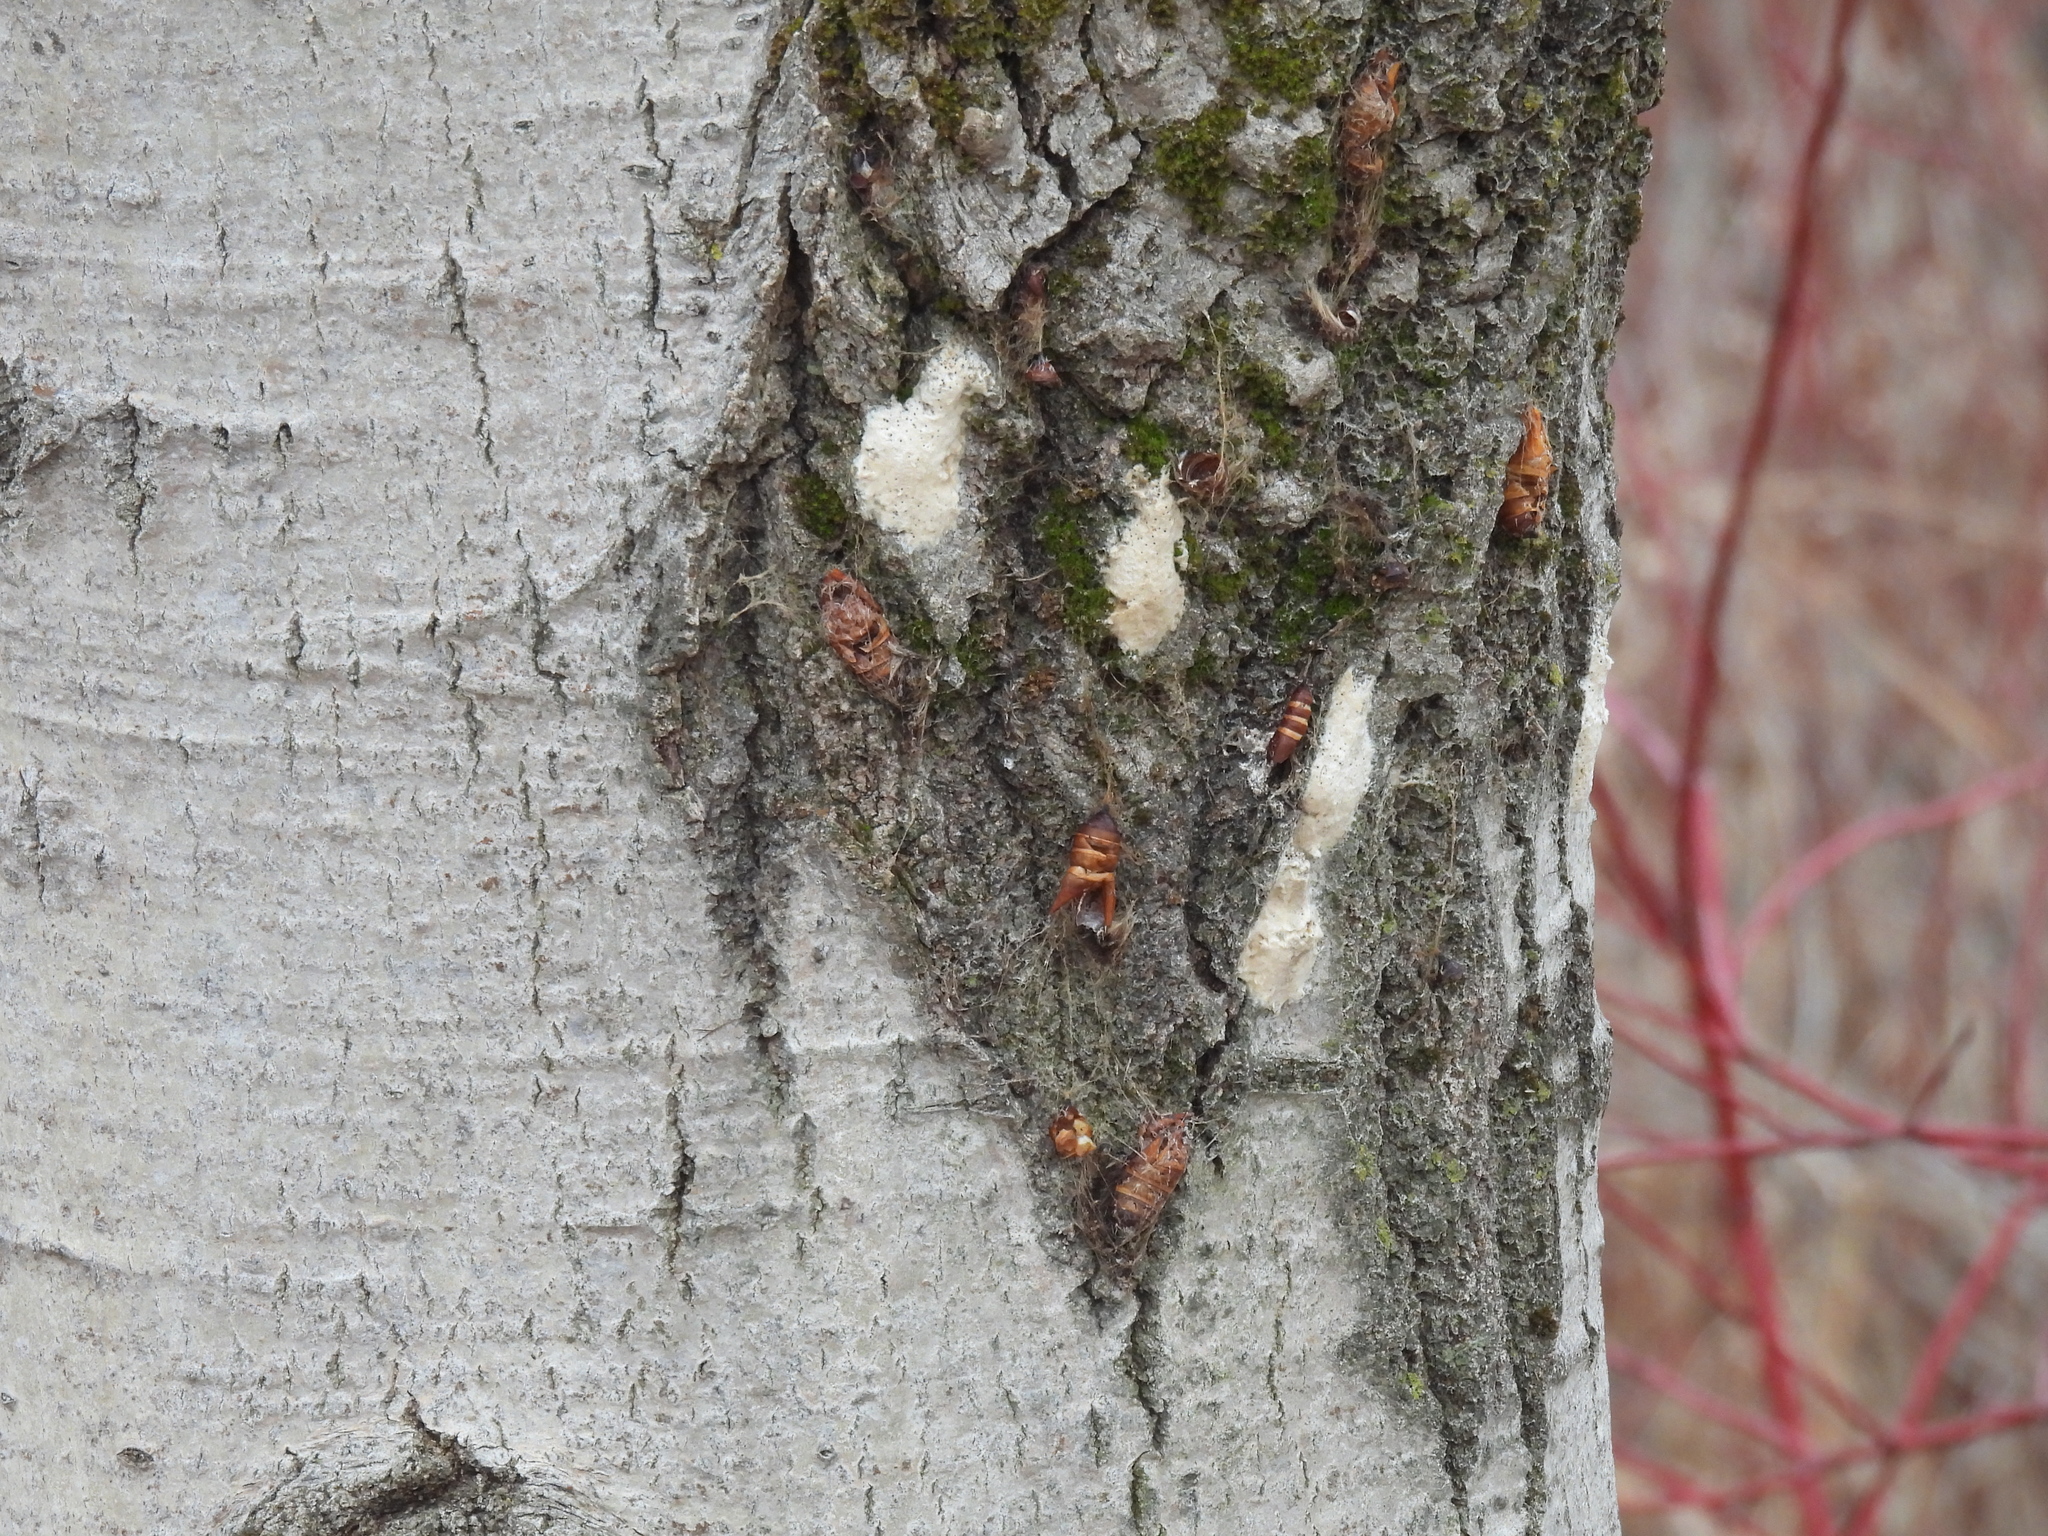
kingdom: Animalia
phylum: Arthropoda
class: Insecta
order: Lepidoptera
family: Erebidae
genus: Lymantria
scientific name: Lymantria dispar
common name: Gypsy moth
